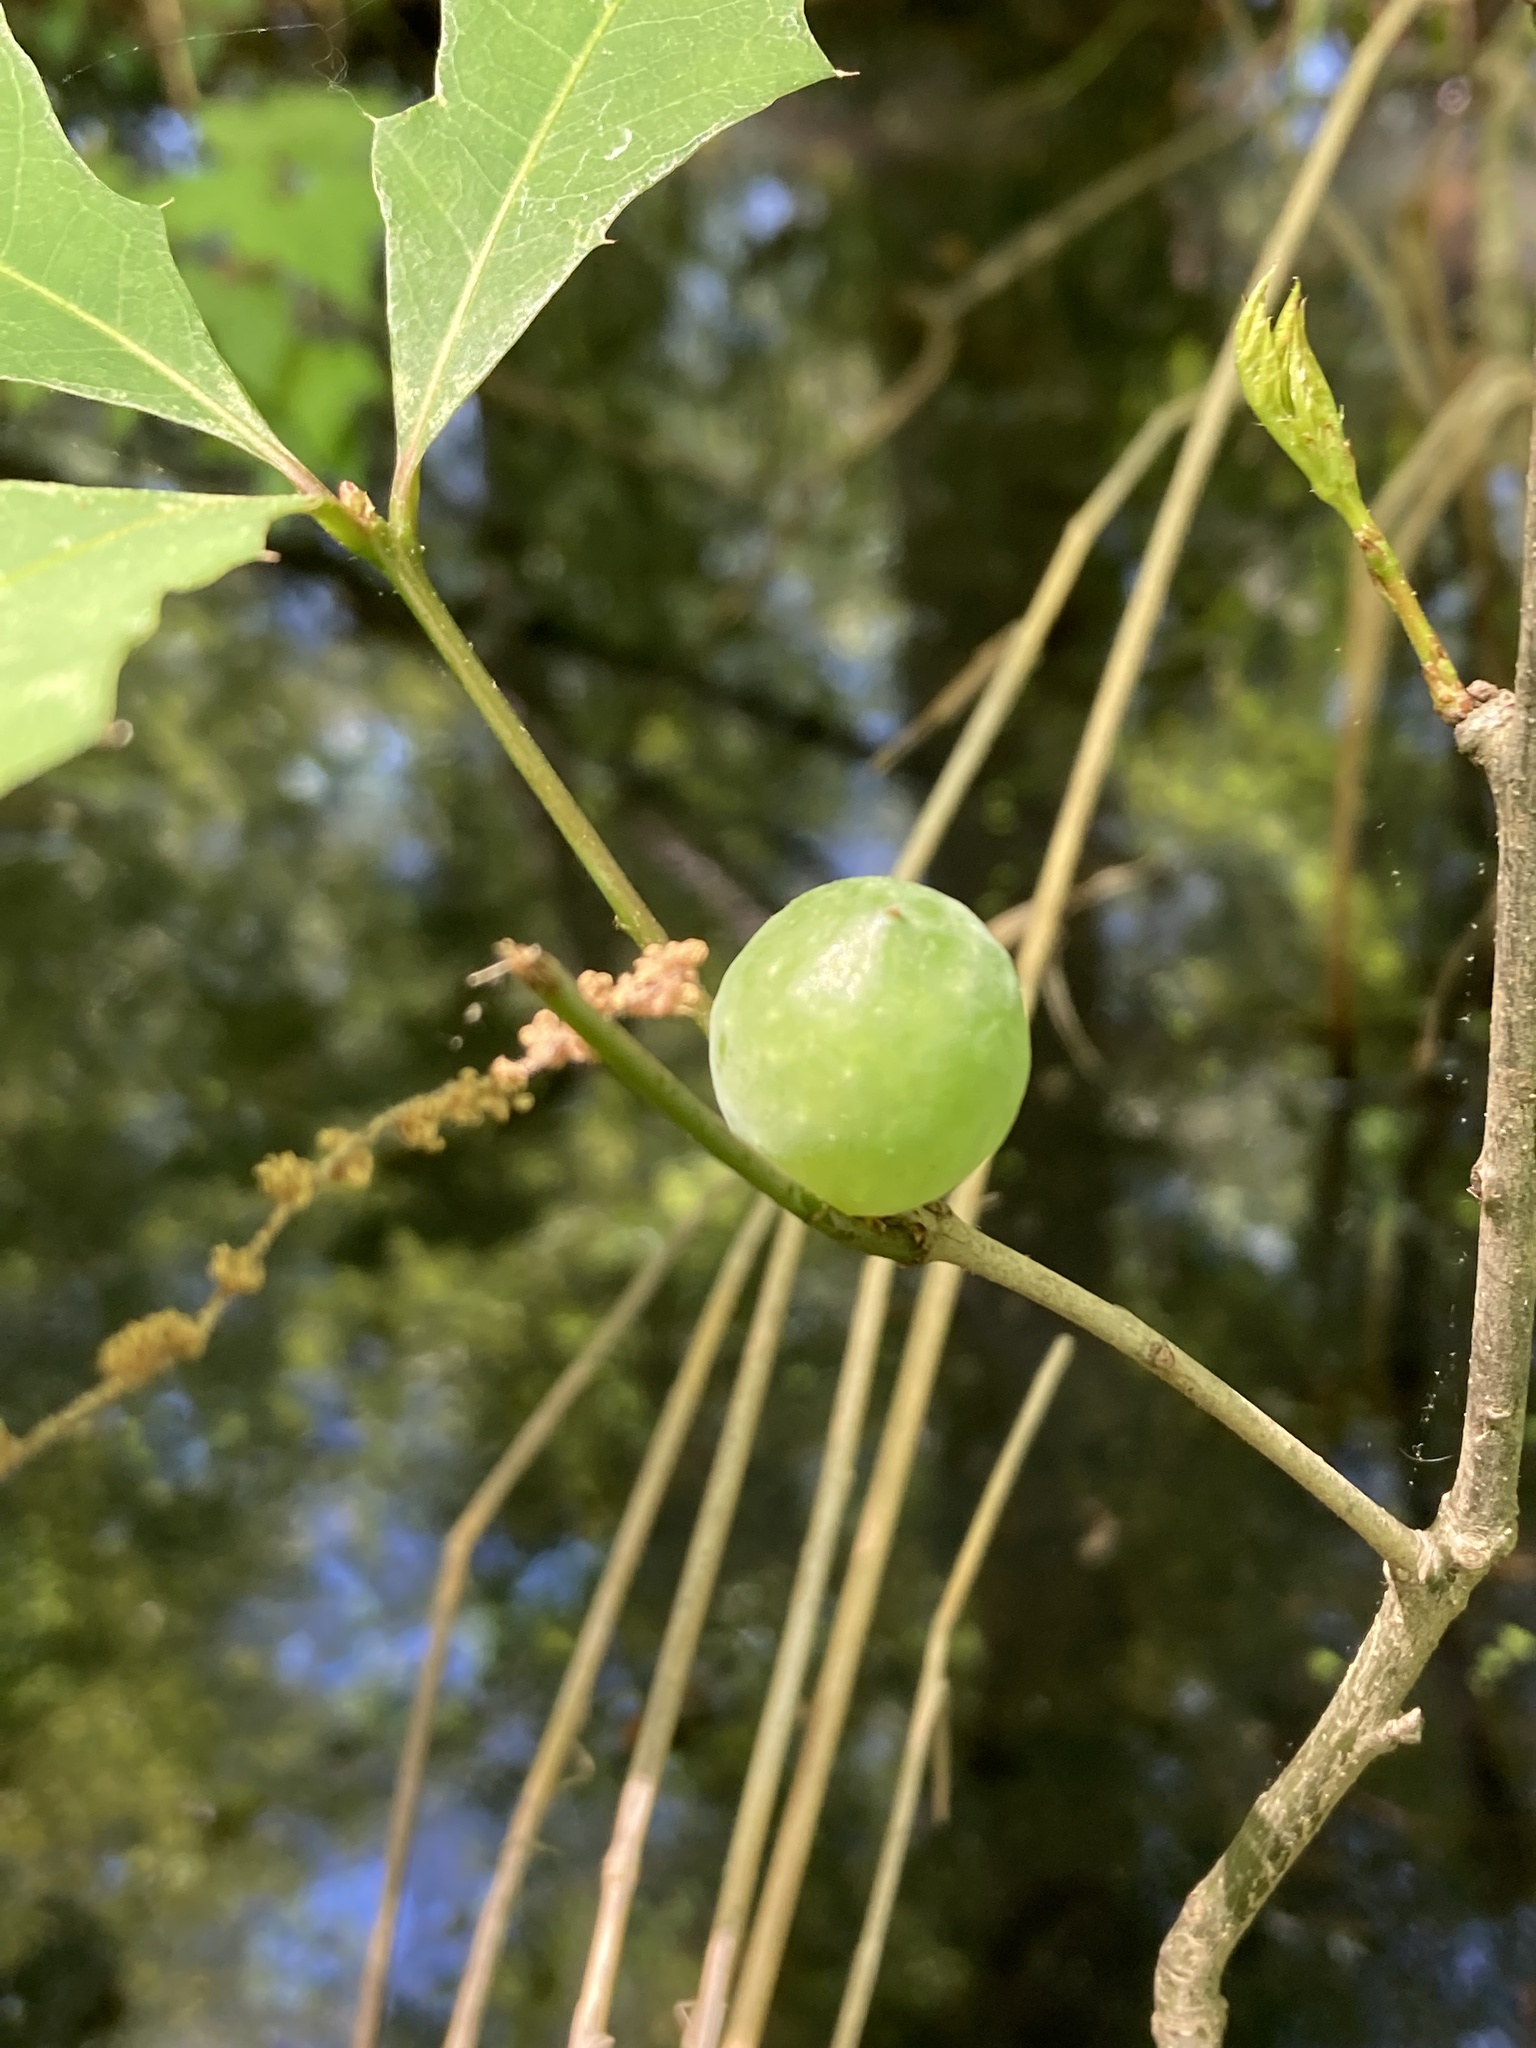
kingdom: Animalia
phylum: Arthropoda
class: Insecta
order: Hymenoptera
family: Cynipidae
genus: Amphibolips
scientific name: Amphibolips
